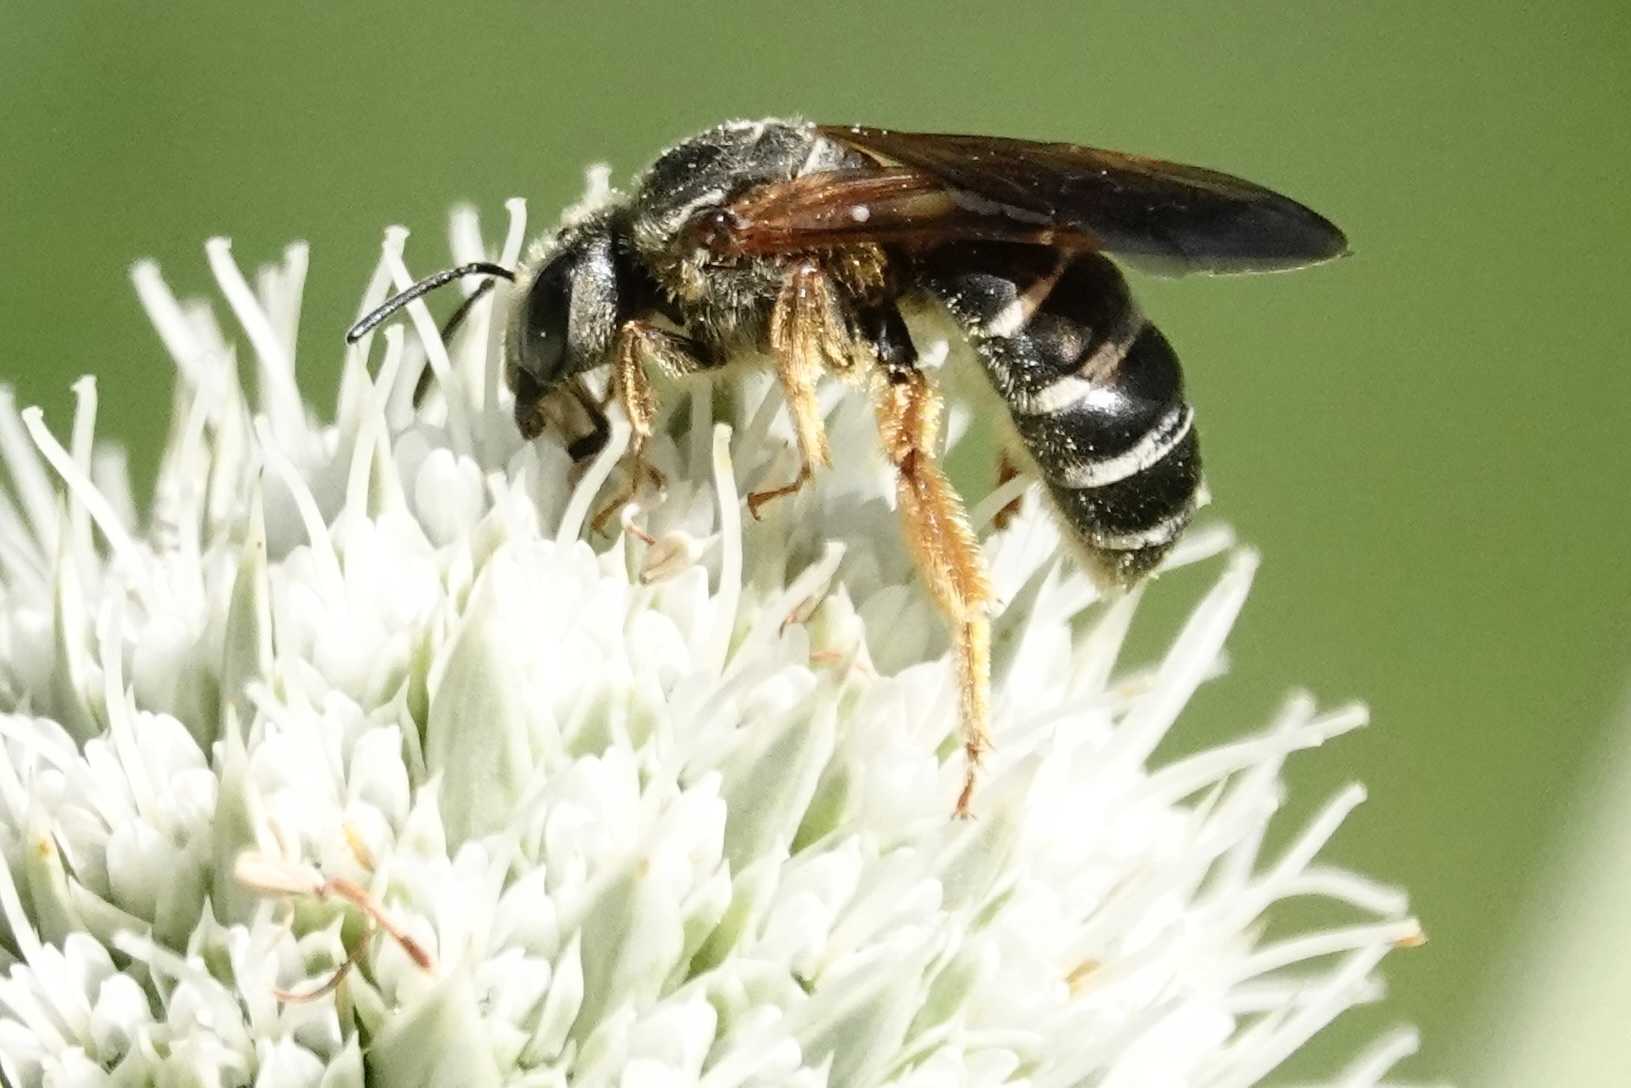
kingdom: Animalia
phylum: Arthropoda
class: Insecta
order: Hymenoptera
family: Halictidae
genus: Halictus
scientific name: Halictus parallelus
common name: Parallel-striped sweat bee
